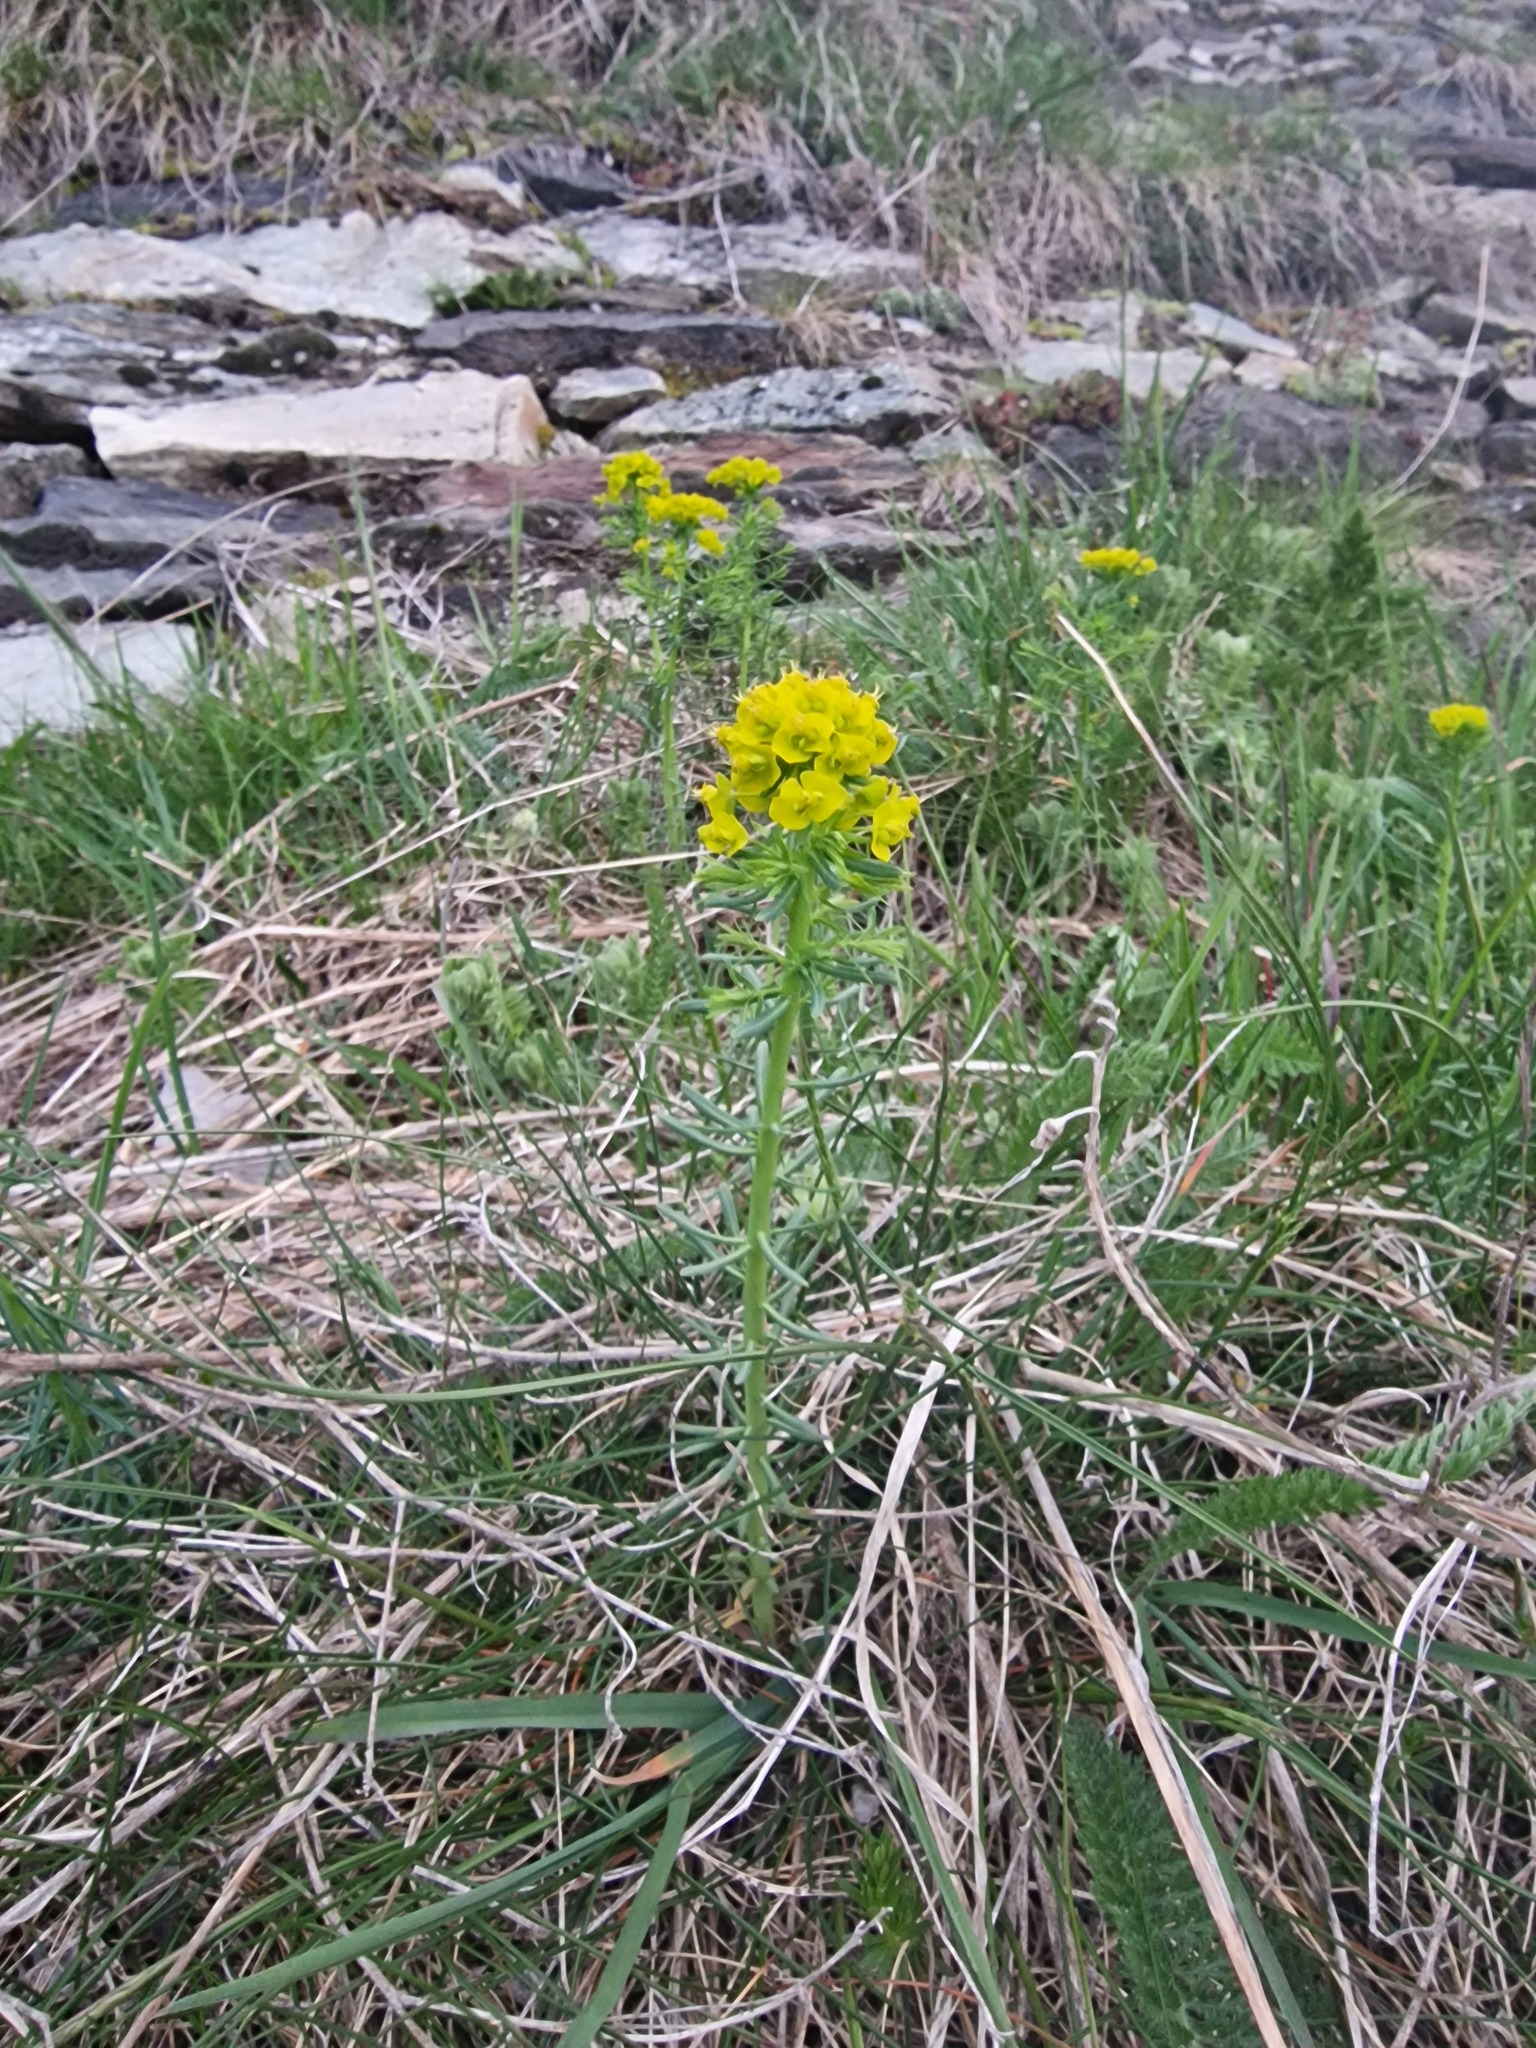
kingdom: Plantae
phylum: Tracheophyta
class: Magnoliopsida
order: Malpighiales
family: Euphorbiaceae
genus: Euphorbia
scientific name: Euphorbia cyparissias
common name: Cypress spurge
